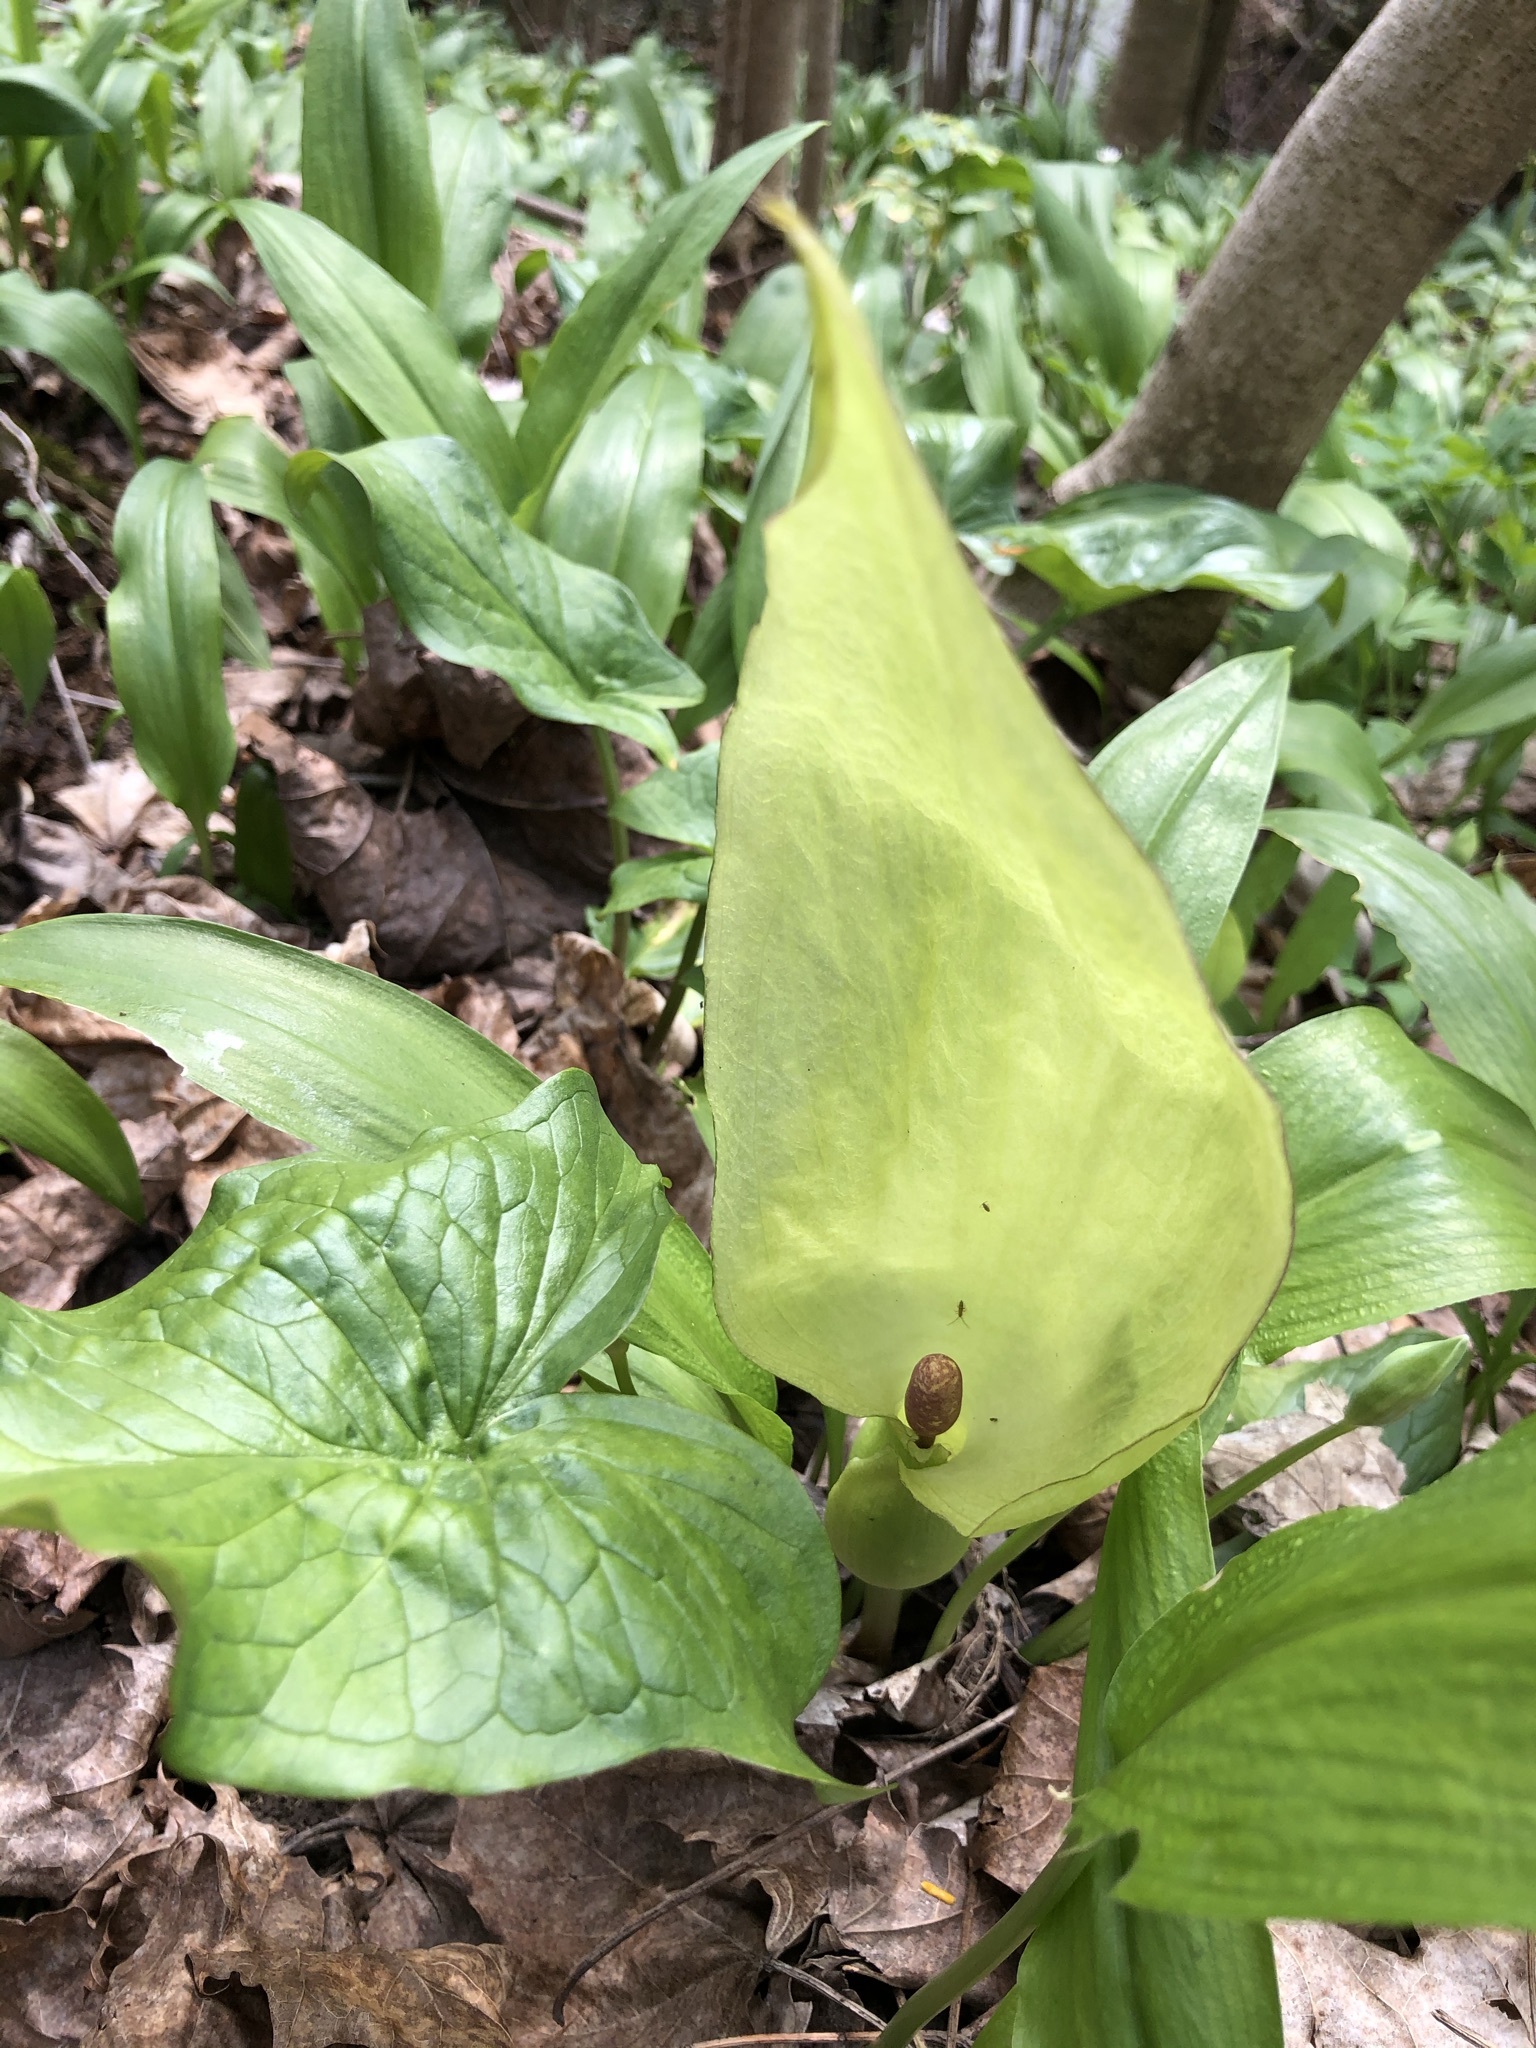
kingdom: Plantae
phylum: Tracheophyta
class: Liliopsida
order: Alismatales
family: Araceae
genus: Arum
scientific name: Arum maculatum
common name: Lords-and-ladies
